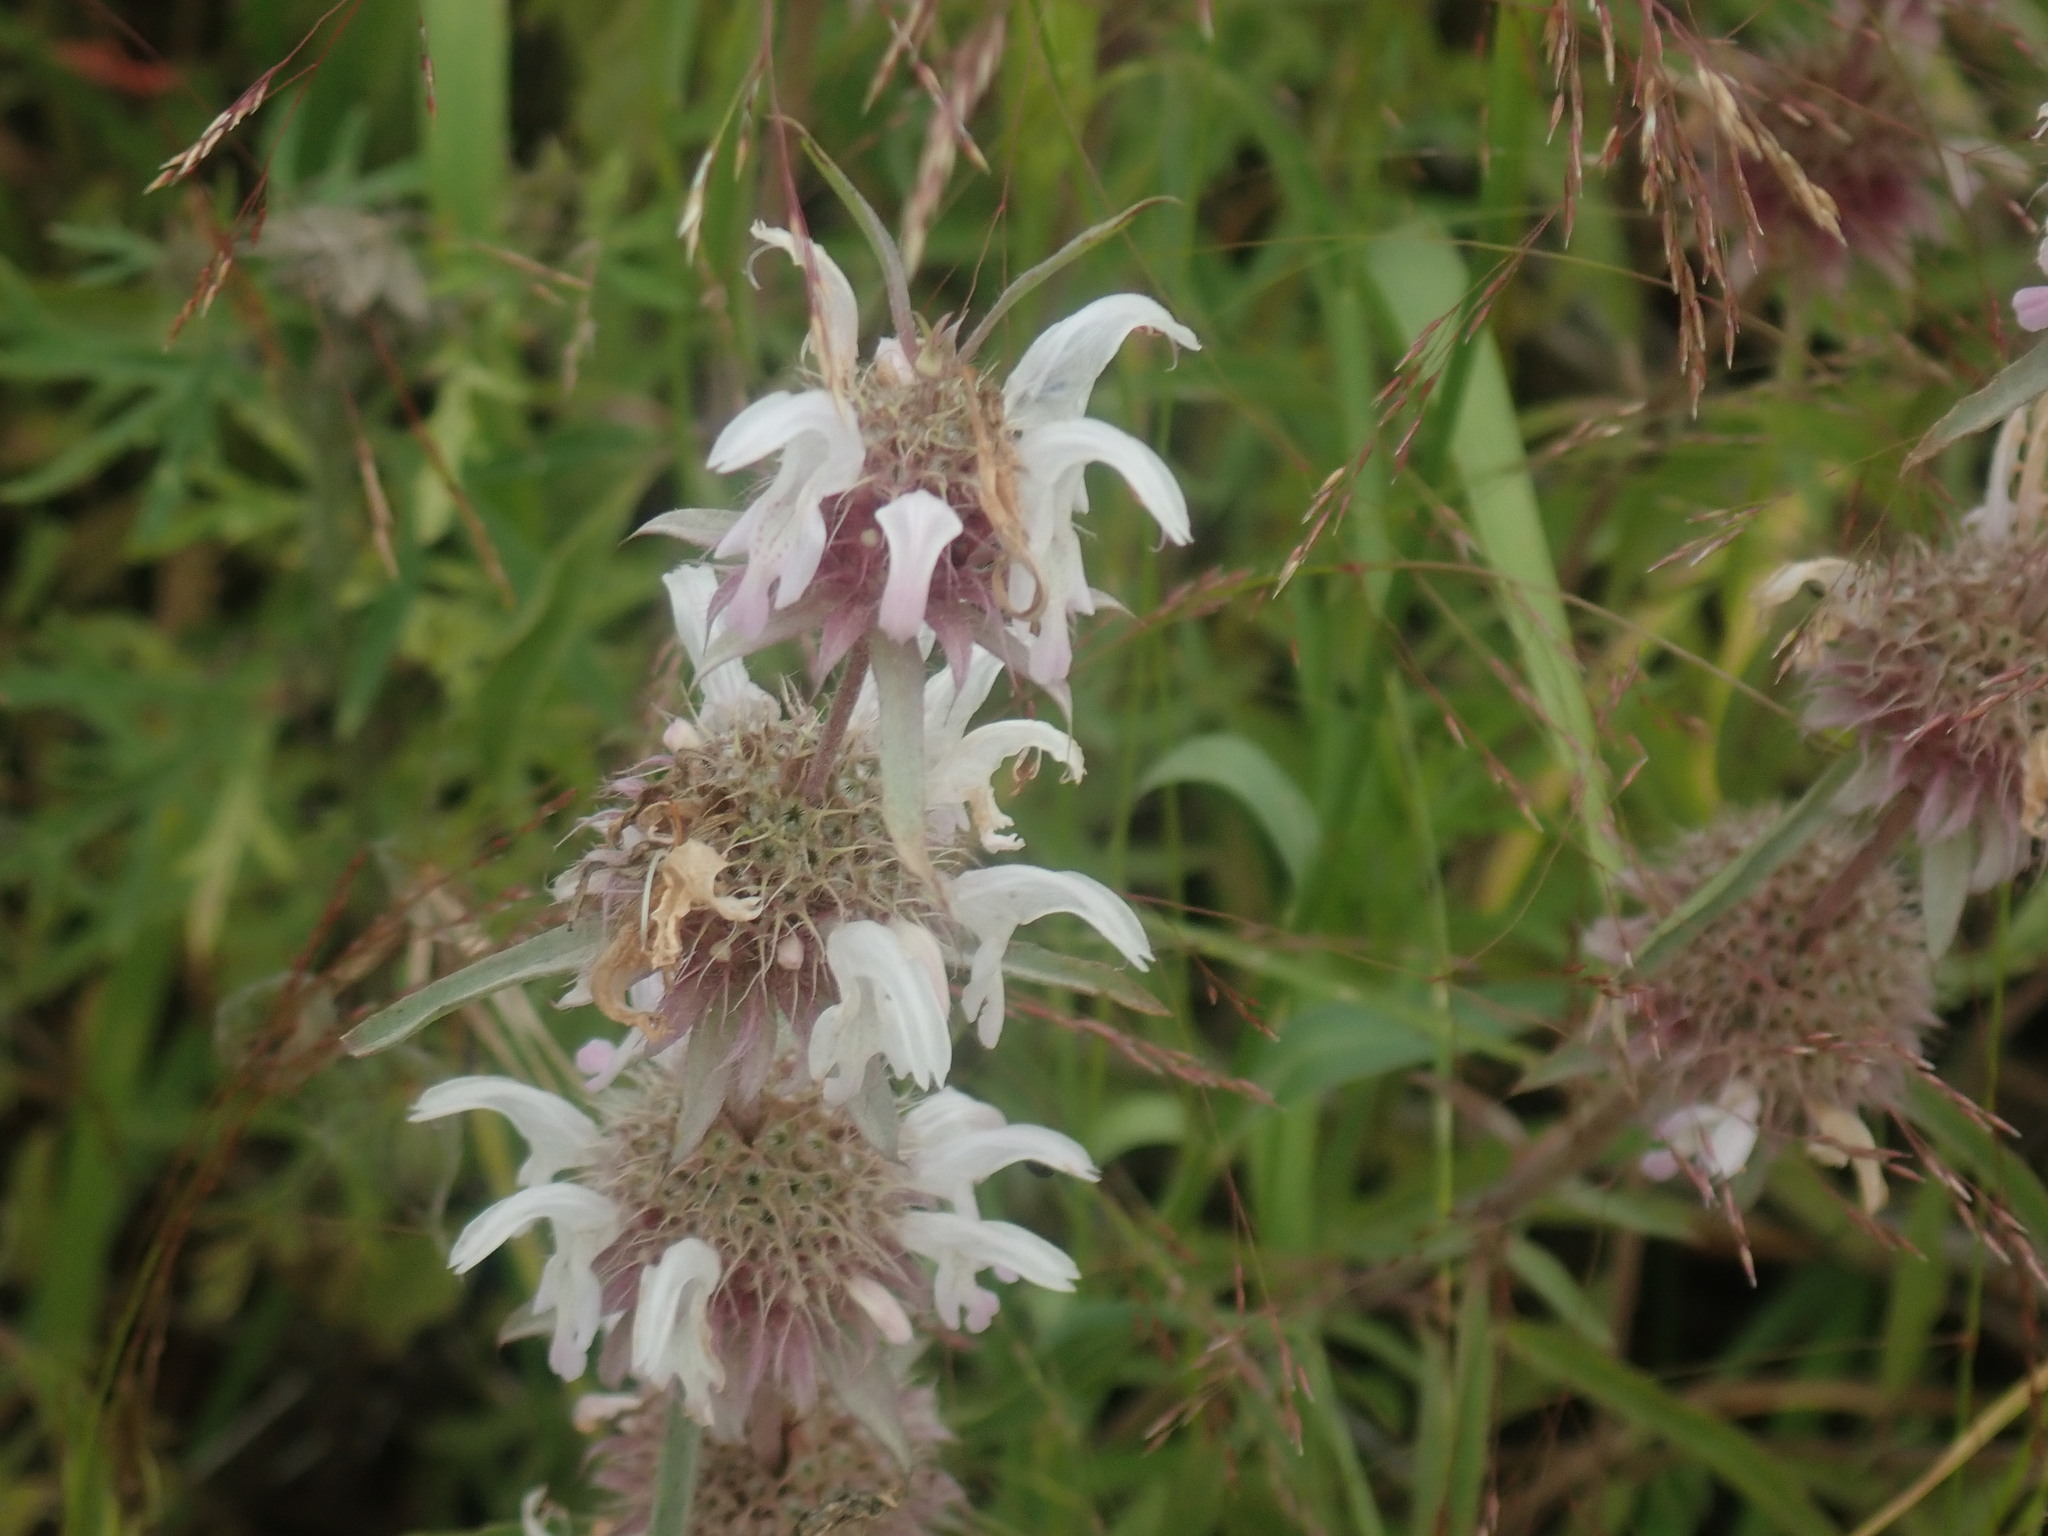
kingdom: Plantae
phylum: Tracheophyta
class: Magnoliopsida
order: Lamiales
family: Lamiaceae
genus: Monarda
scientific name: Monarda pectinata
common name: Plains beebalm
